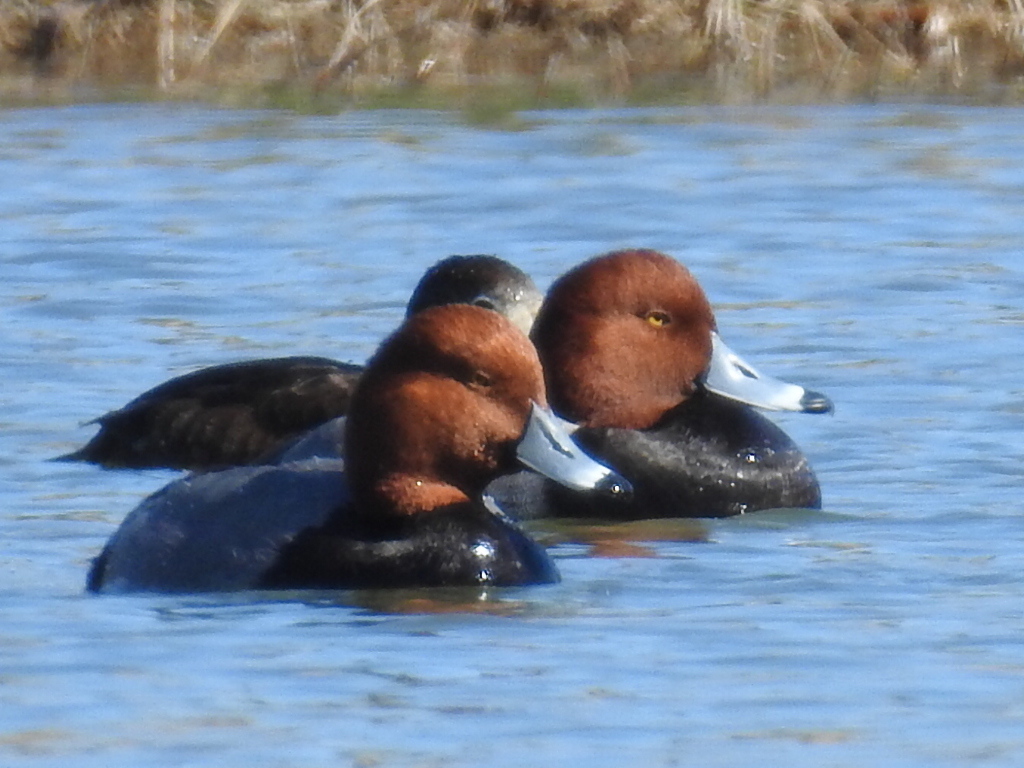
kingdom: Animalia
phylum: Chordata
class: Aves
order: Anseriformes
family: Anatidae
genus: Aythya
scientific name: Aythya americana
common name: Redhead
